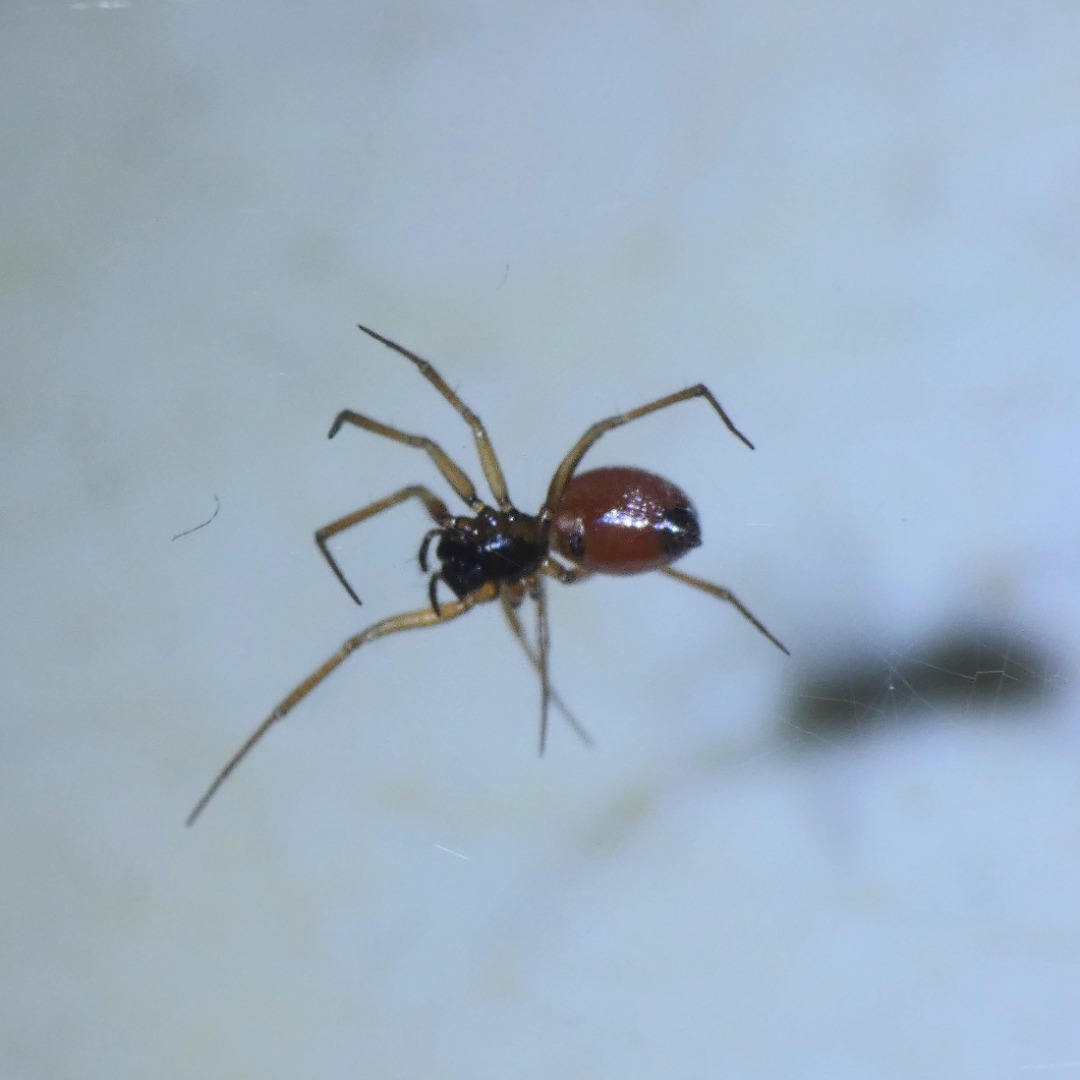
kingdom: Animalia
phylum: Arthropoda
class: Arachnida
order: Araneae
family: Linyphiidae
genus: Ostearius
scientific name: Ostearius melanopygius
